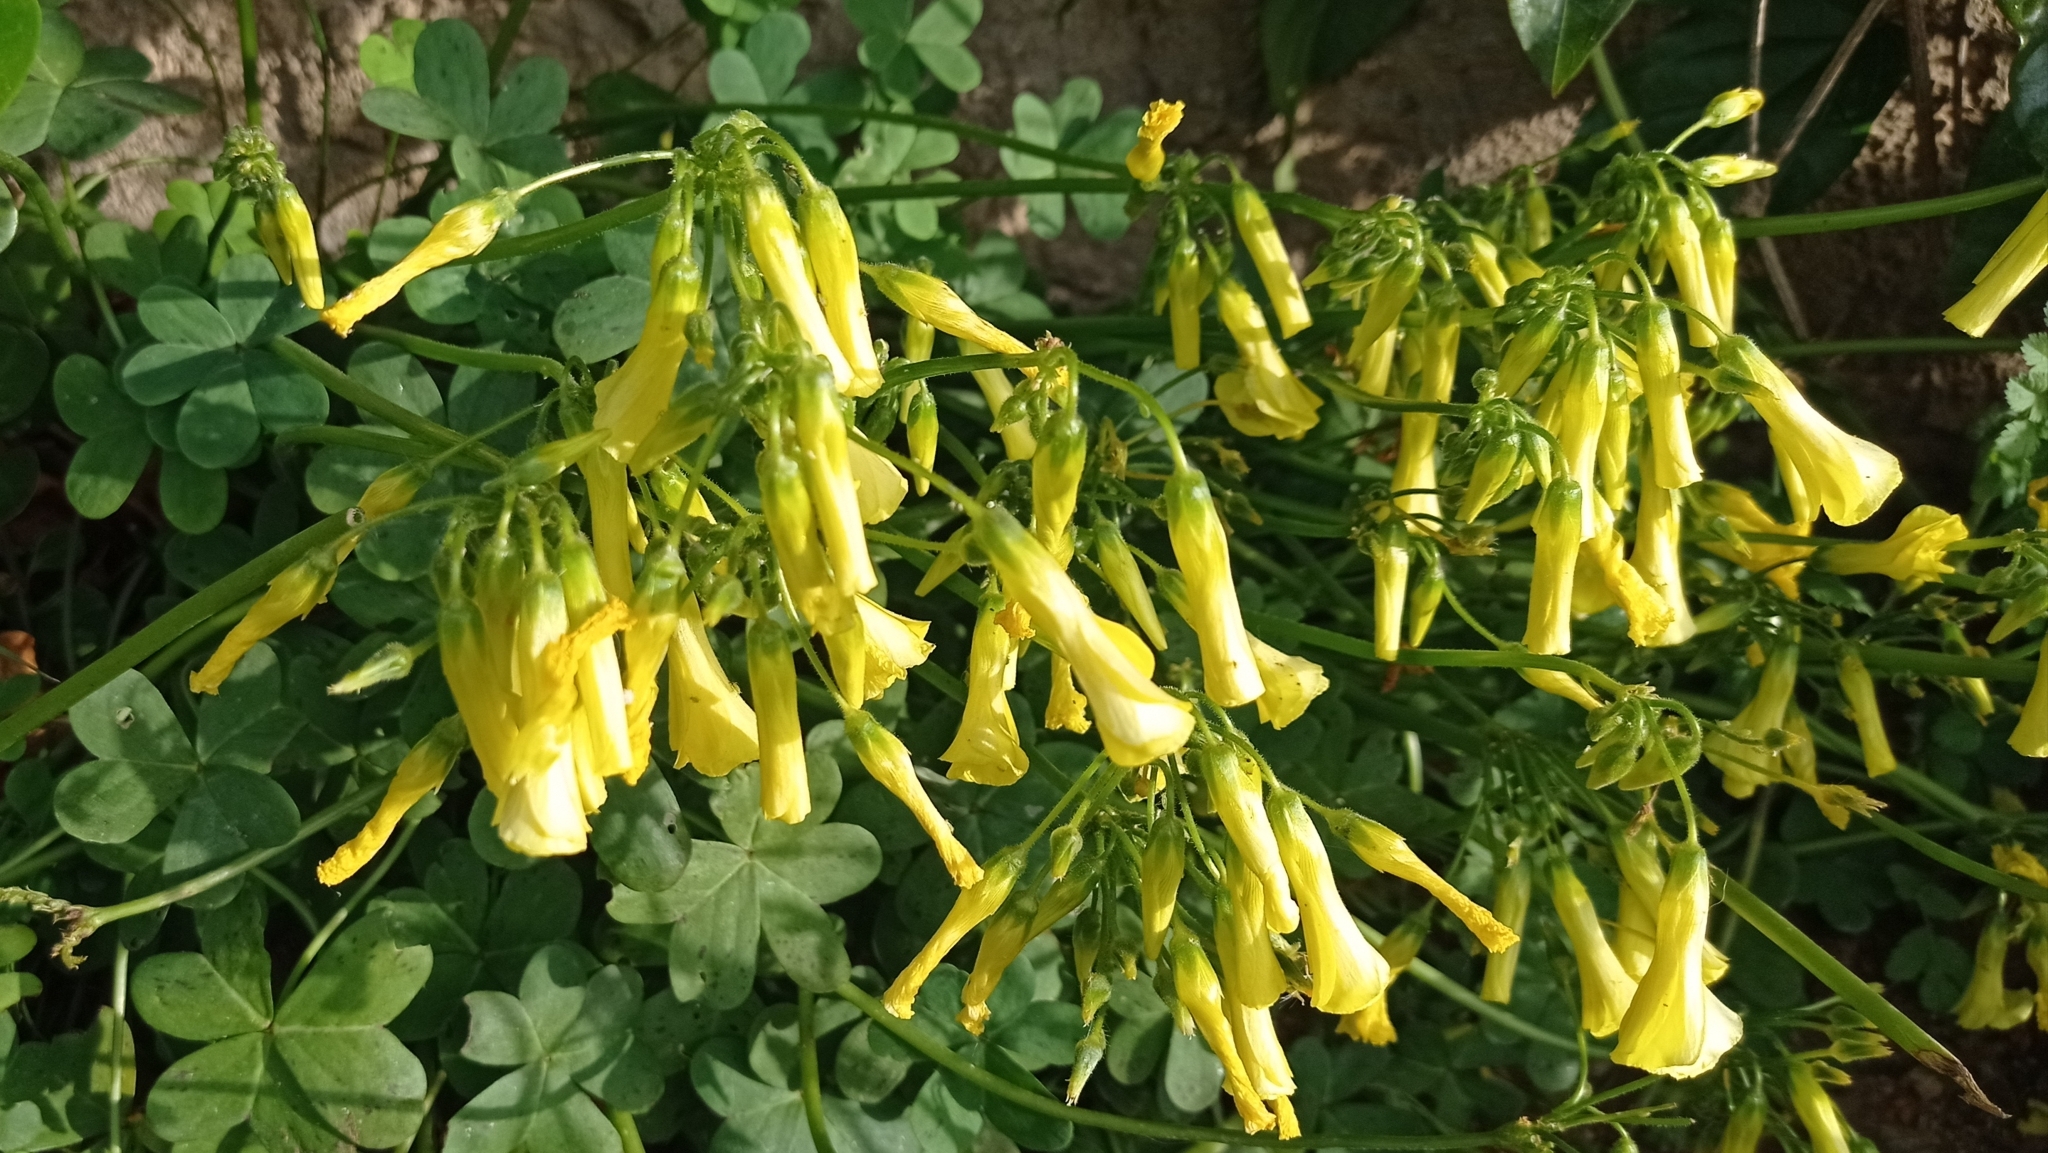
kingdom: Plantae
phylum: Tracheophyta
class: Magnoliopsida
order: Solanales
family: Solanaceae
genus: Nicotiana
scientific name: Nicotiana glauca
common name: Tree tobacco
